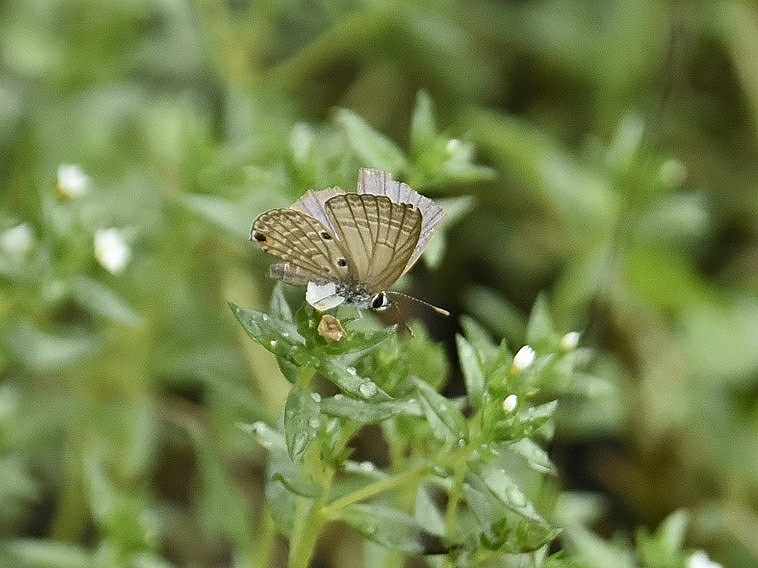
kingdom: Animalia
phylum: Arthropoda
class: Insecta
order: Lepidoptera
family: Lycaenidae
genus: Luthrodes
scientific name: Luthrodes pandava
